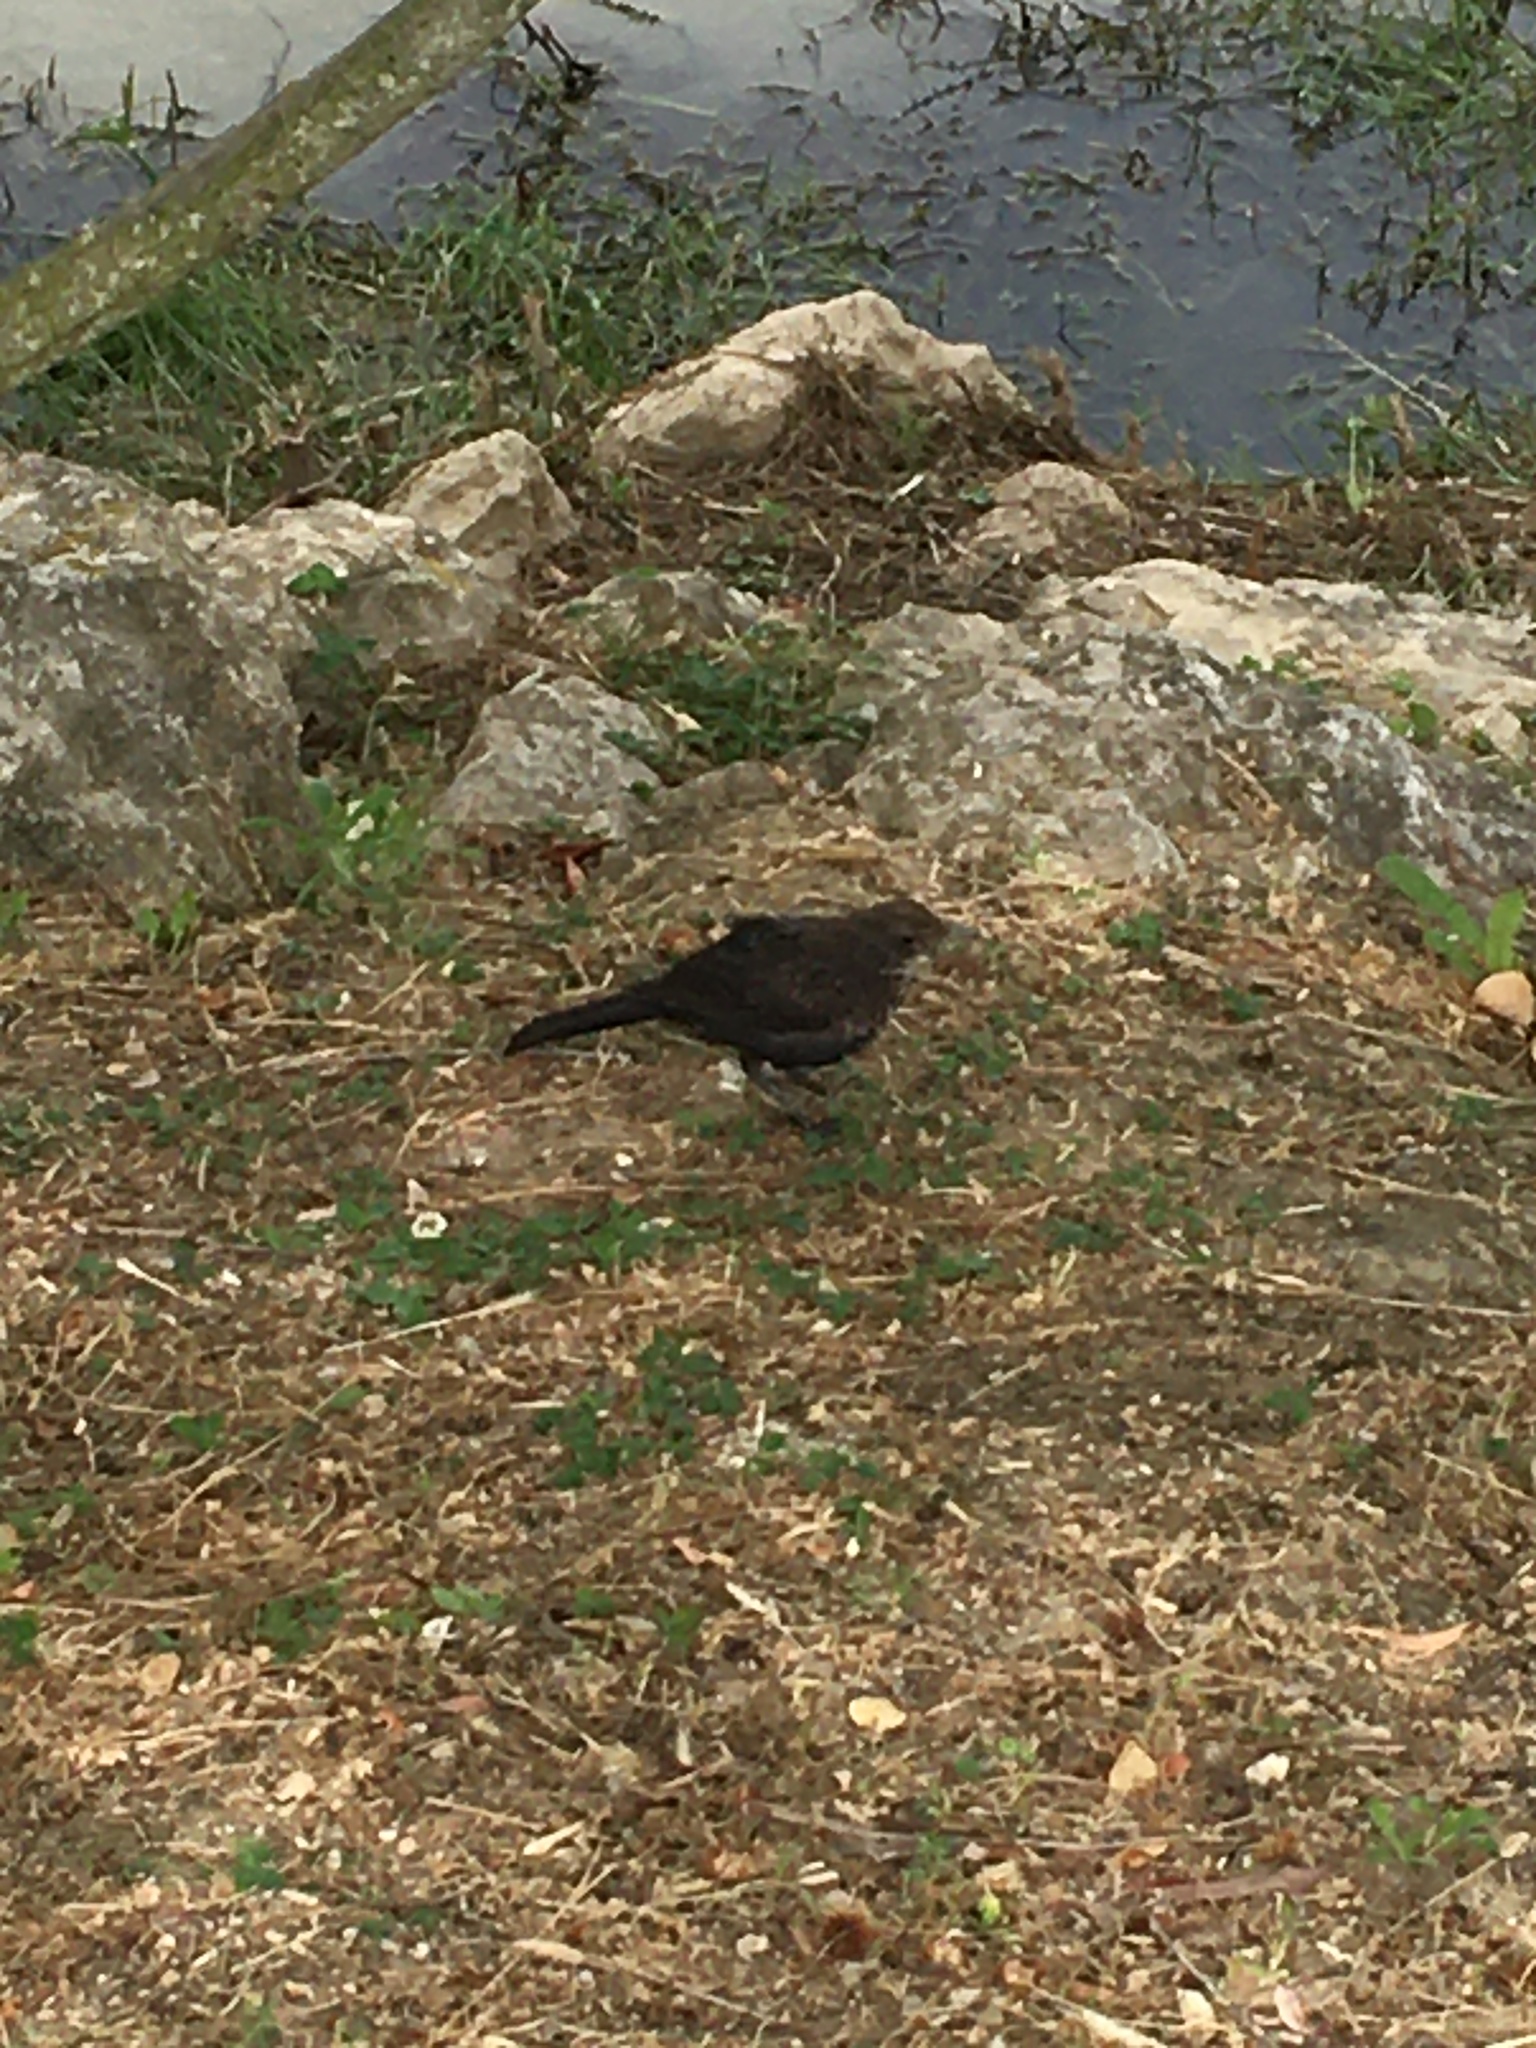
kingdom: Animalia
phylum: Chordata
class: Aves
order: Passeriformes
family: Turdidae
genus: Turdus
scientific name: Turdus merula
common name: Common blackbird
